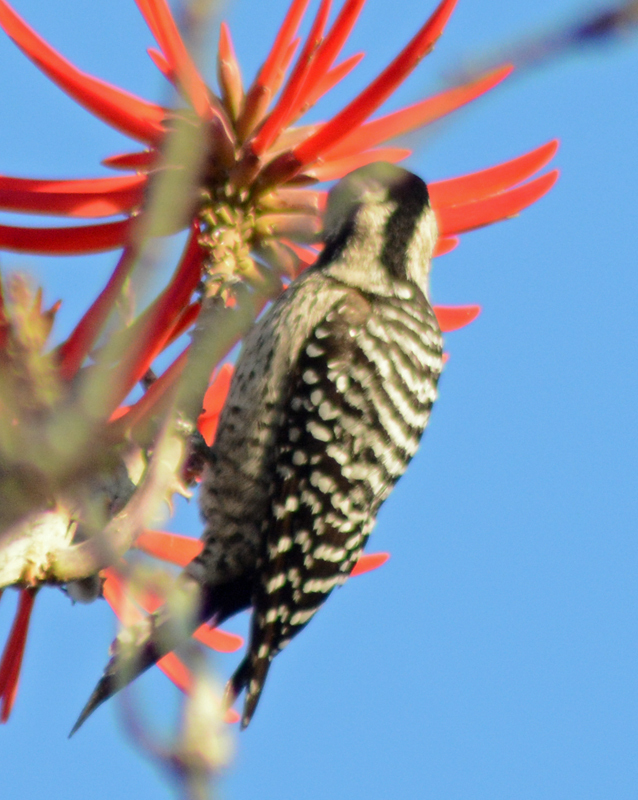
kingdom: Animalia
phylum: Chordata
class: Aves
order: Piciformes
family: Picidae
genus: Dryobates
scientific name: Dryobates scalaris
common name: Ladder-backed woodpecker
